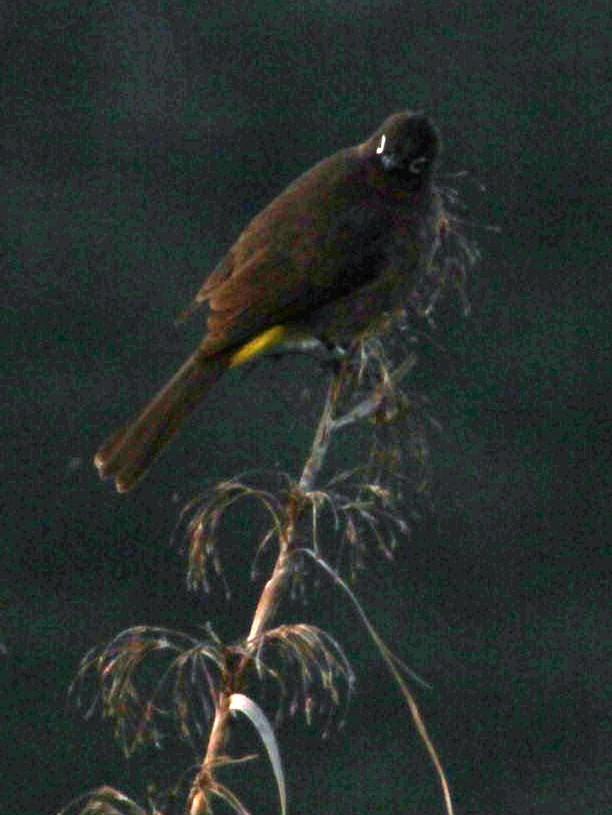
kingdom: Animalia
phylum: Chordata
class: Aves
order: Passeriformes
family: Pycnonotidae
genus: Pycnonotus
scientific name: Pycnonotus capensis
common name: Cape bulbul
